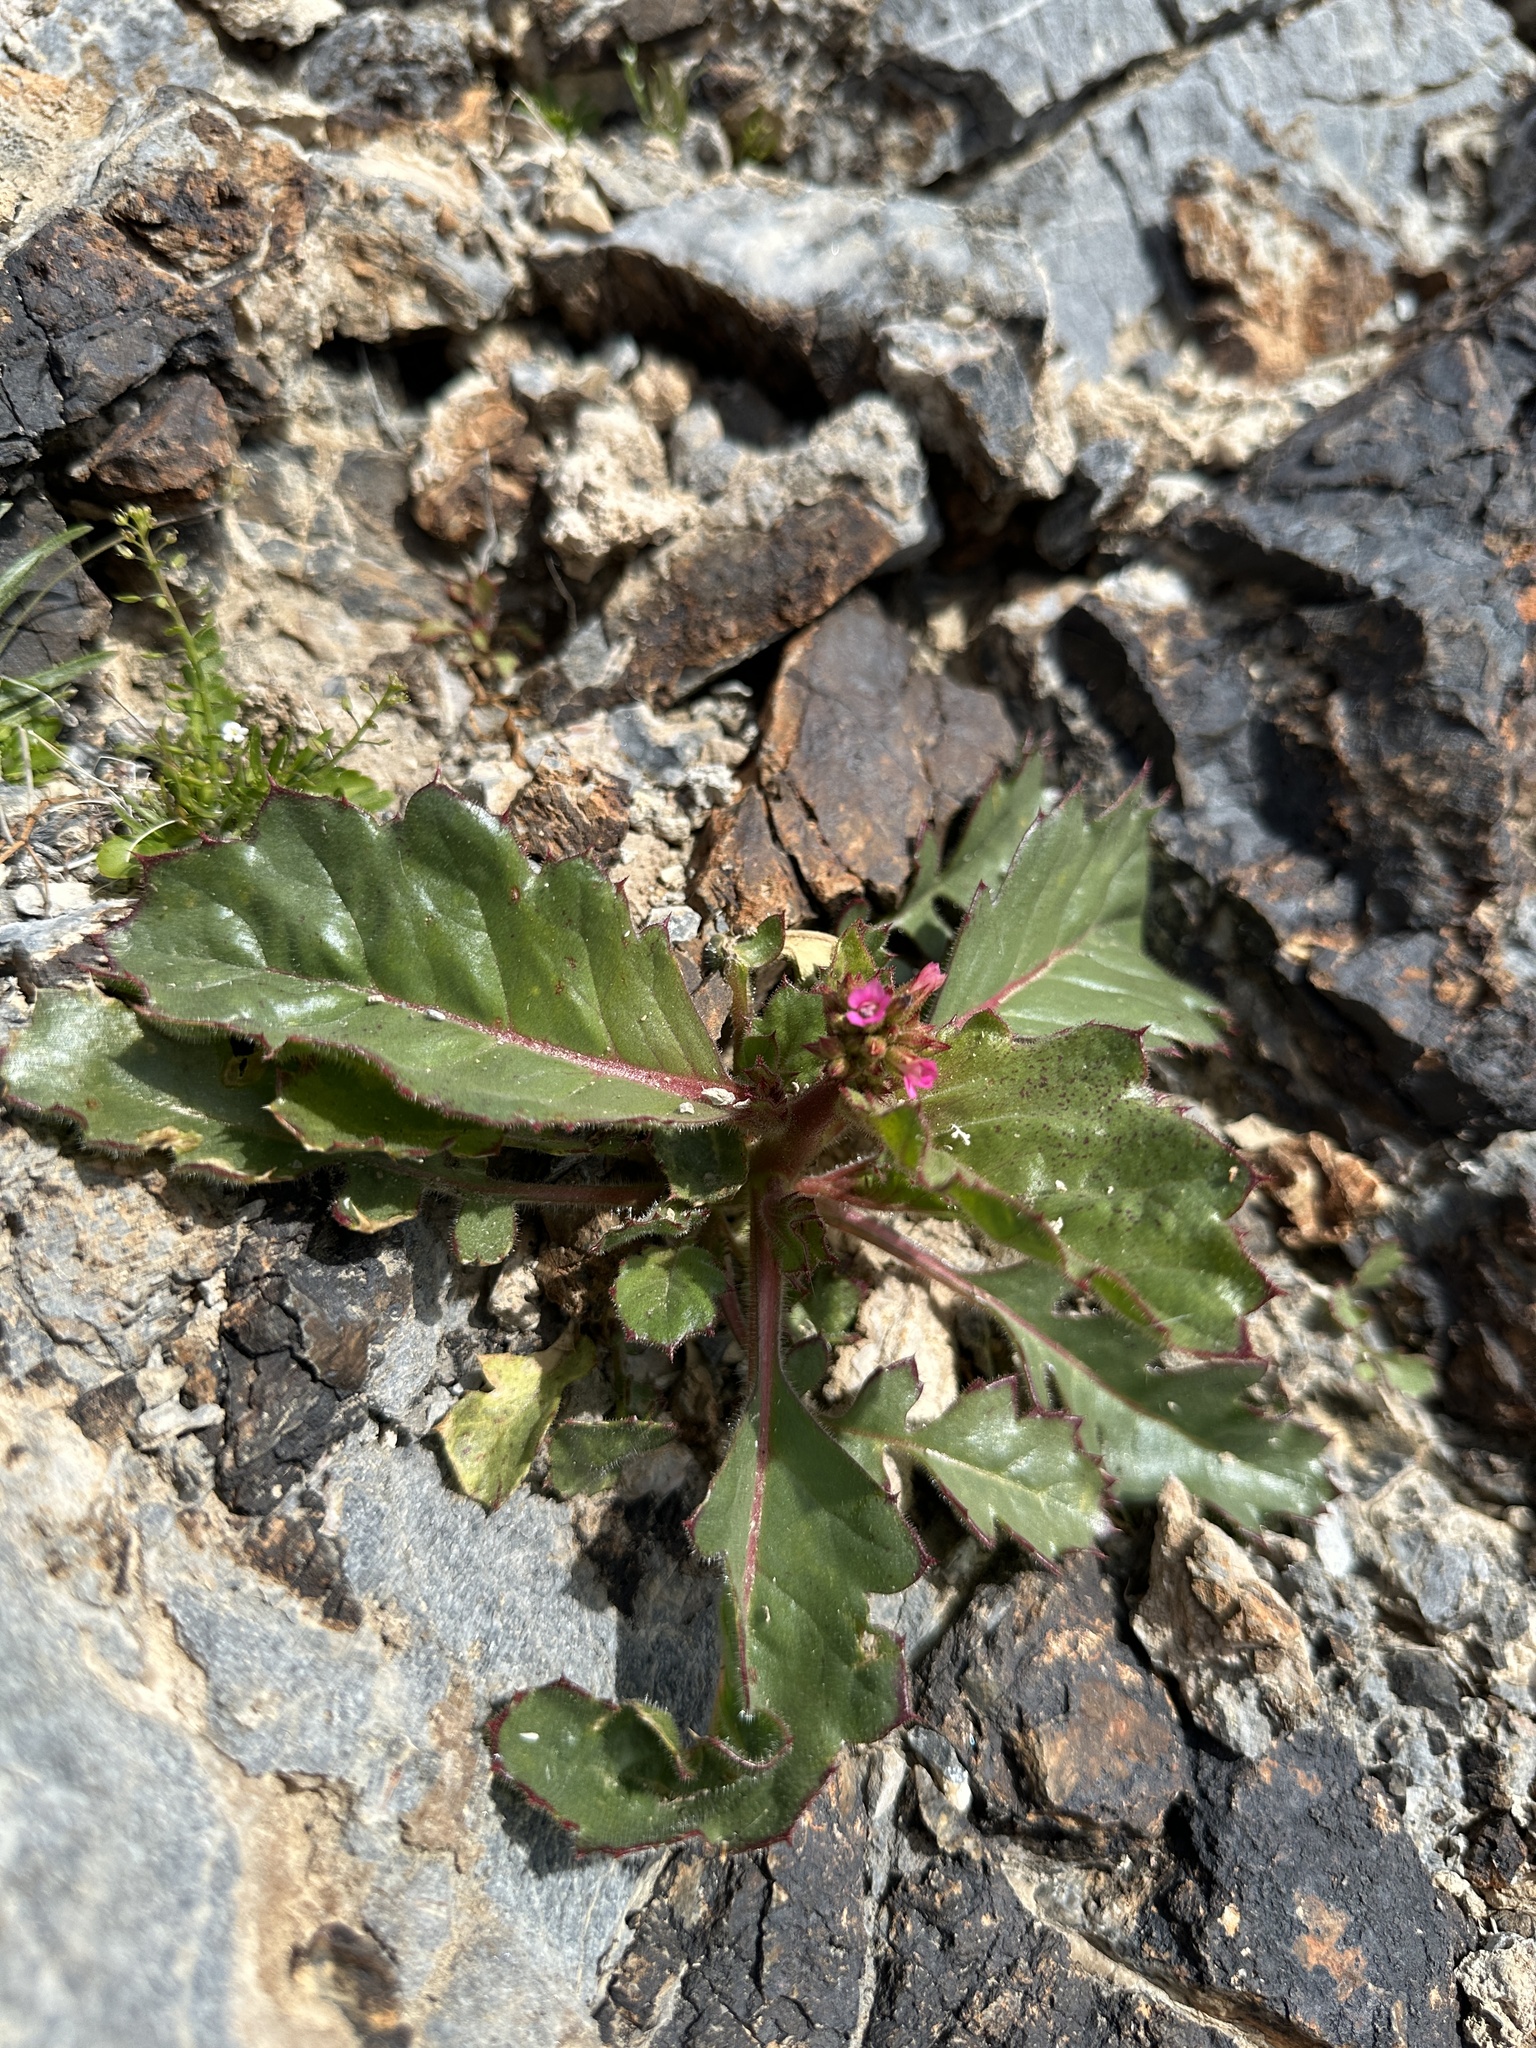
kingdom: Plantae
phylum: Tracheophyta
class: Magnoliopsida
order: Ericales
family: Polemoniaceae
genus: Aliciella
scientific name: Aliciella latifolia
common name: Broad-leaf gilia
